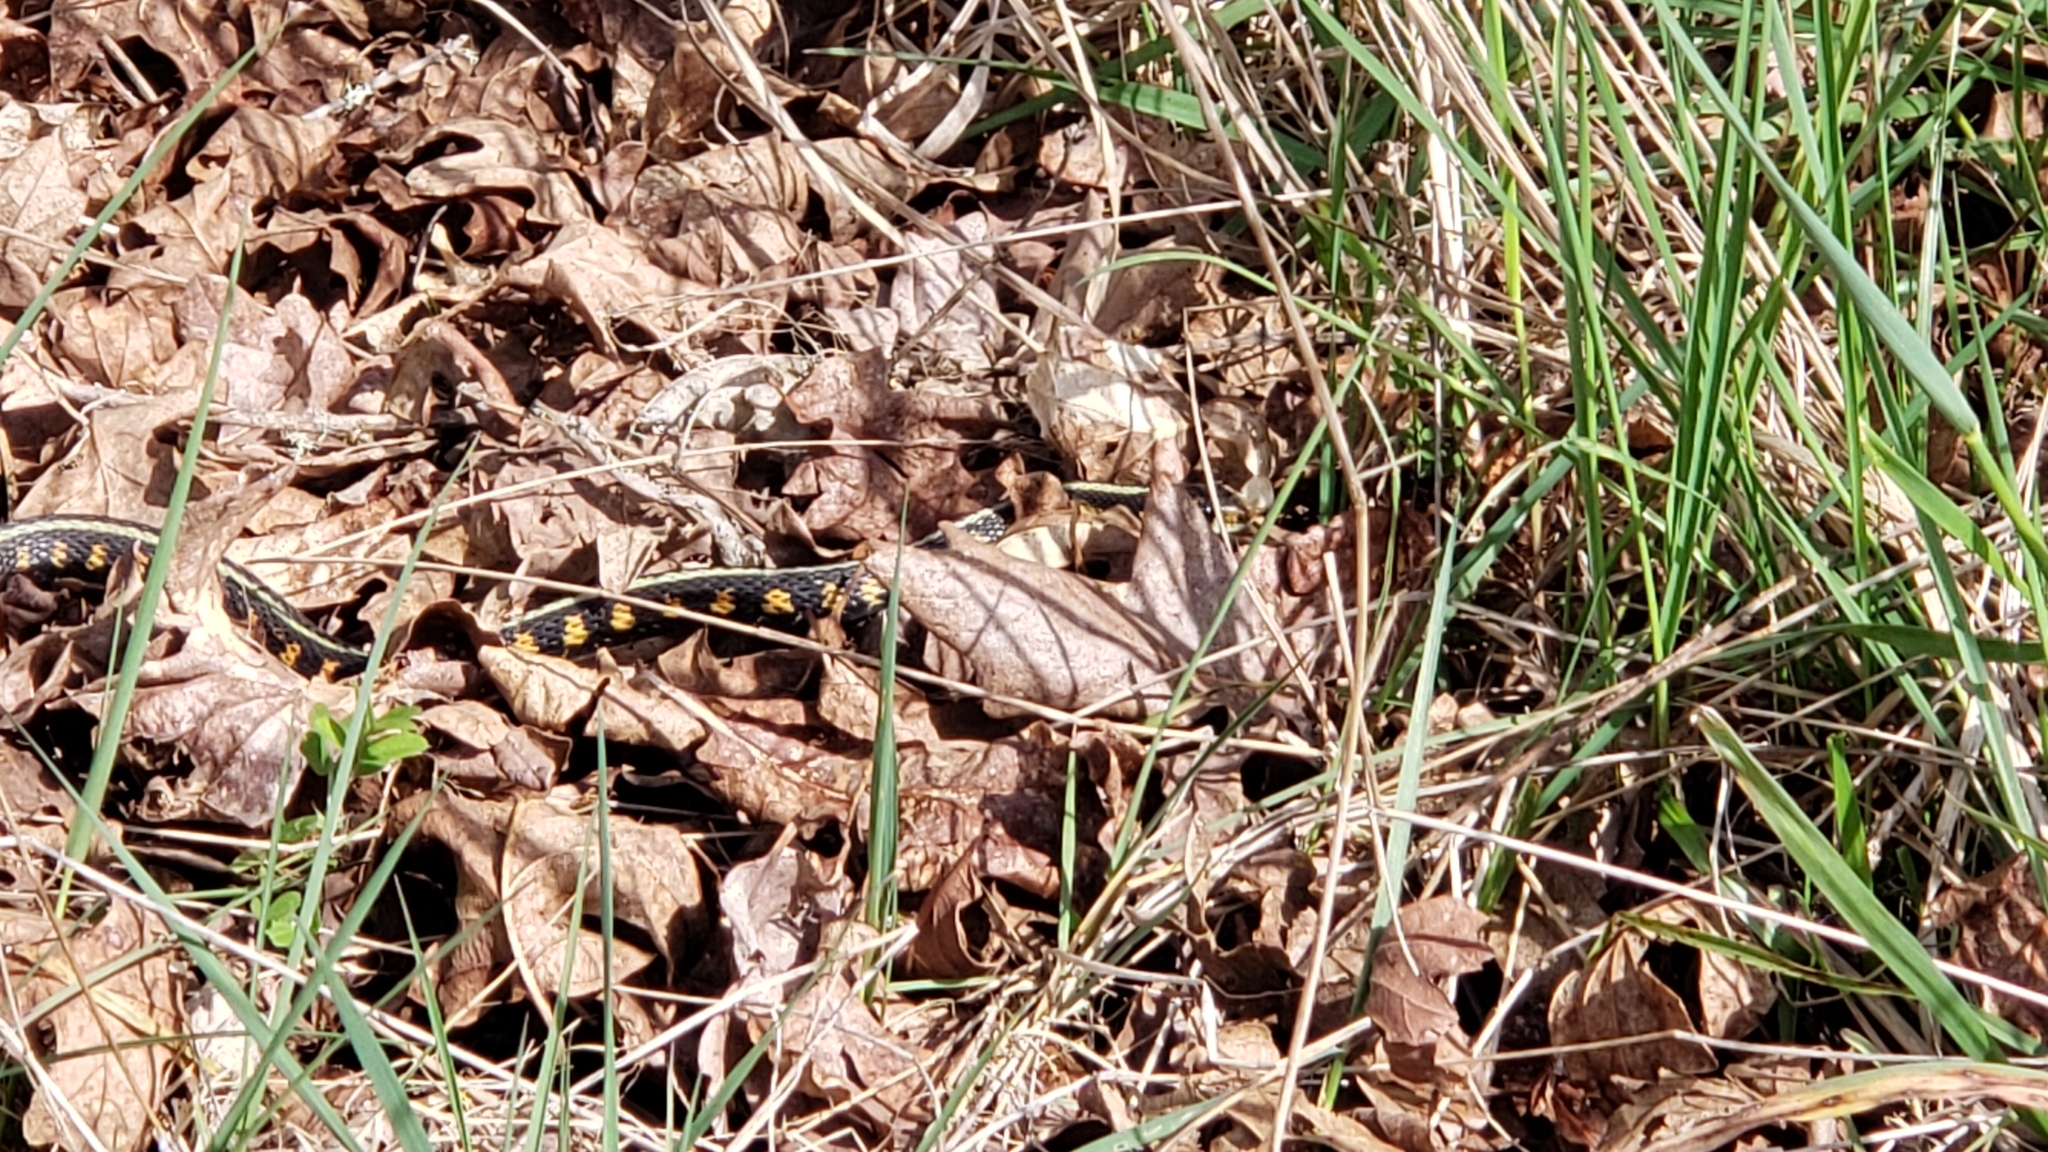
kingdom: Animalia
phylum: Chordata
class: Squamata
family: Colubridae
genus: Thamnophis
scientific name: Thamnophis sirtalis
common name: Common garter snake
